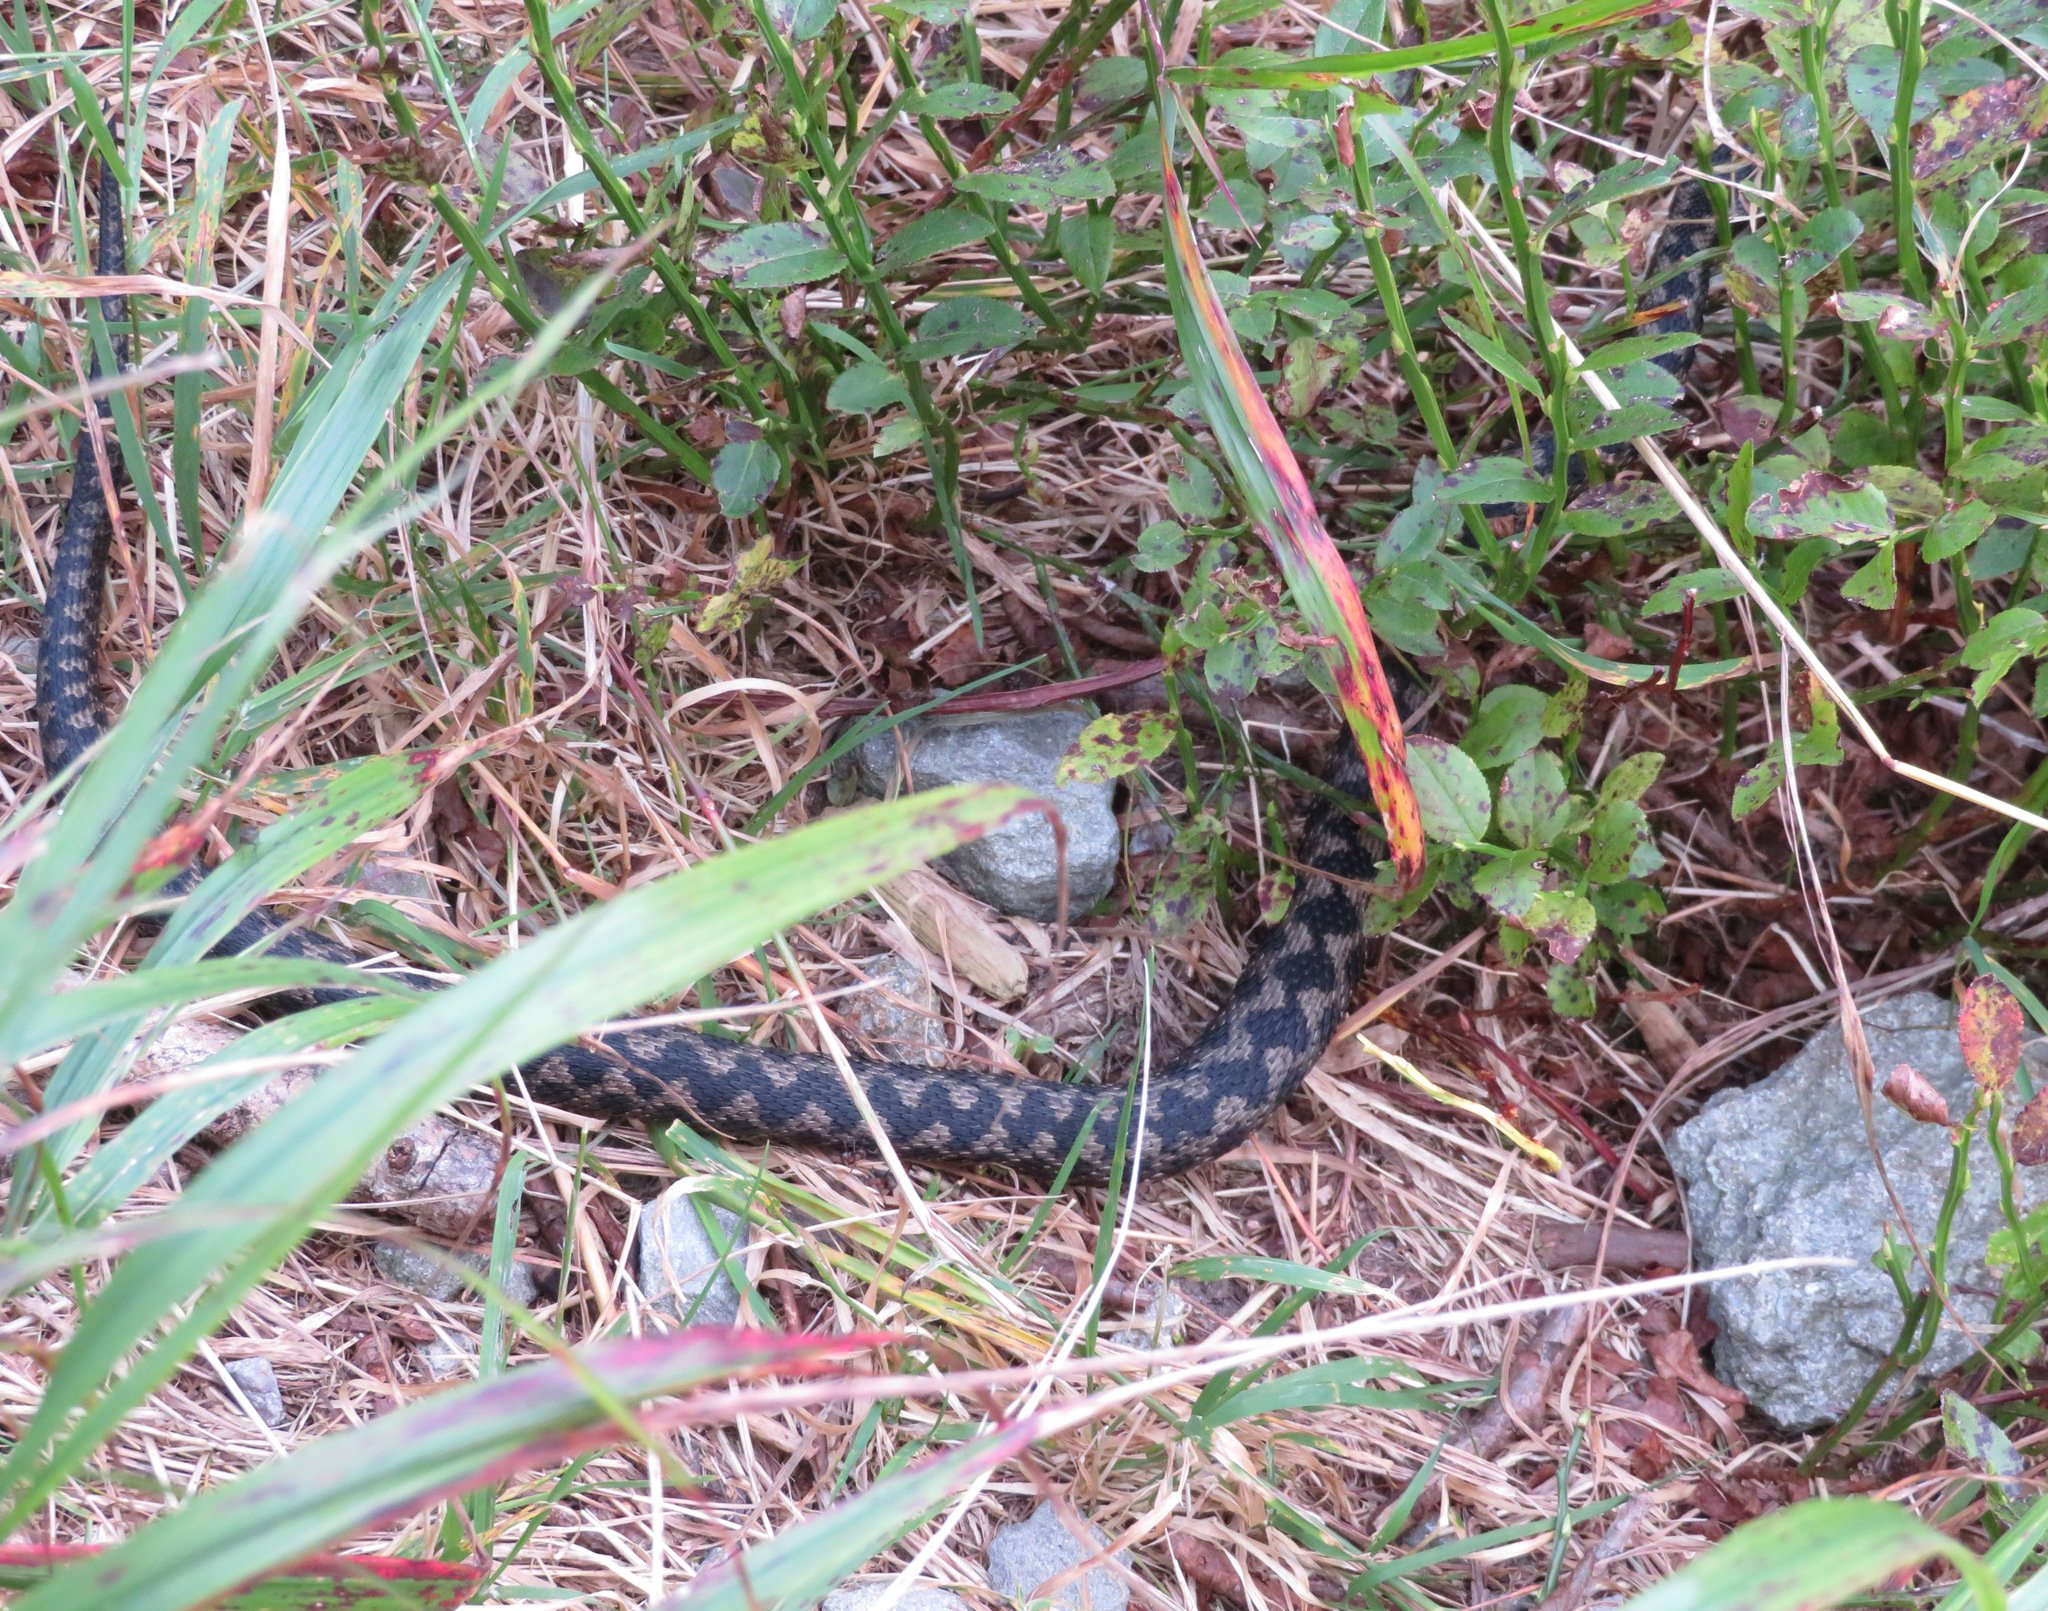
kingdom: Animalia
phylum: Chordata
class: Squamata
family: Viperidae
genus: Vipera
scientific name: Vipera berus
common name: Adder
